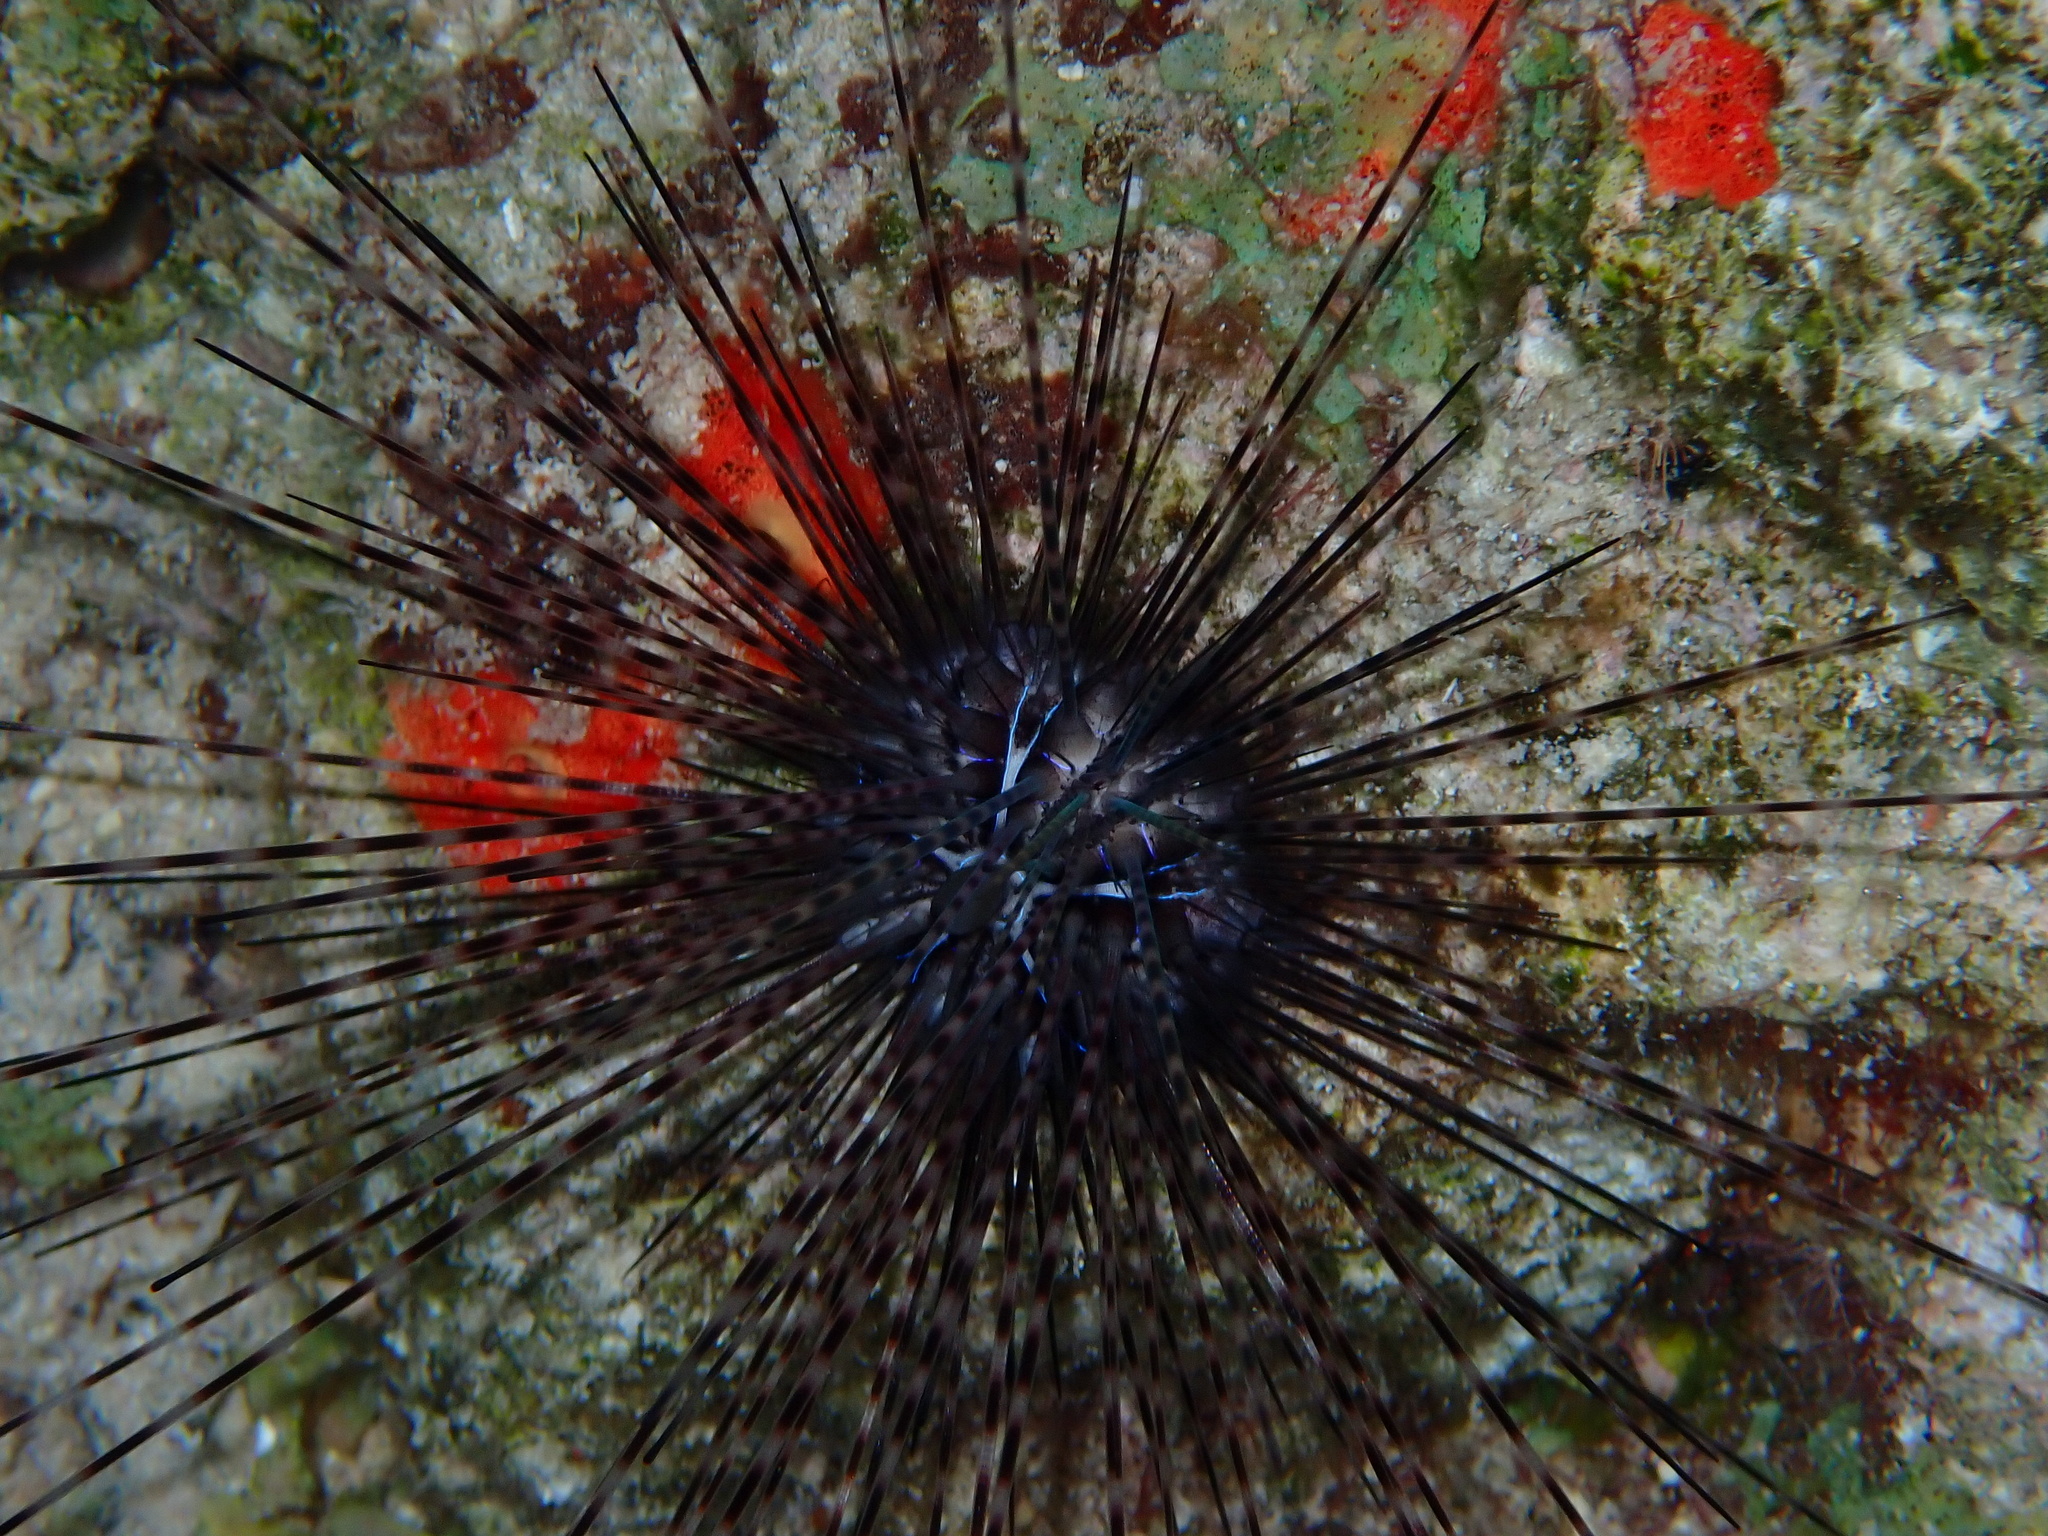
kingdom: Animalia
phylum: Echinodermata
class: Echinoidea
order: Diadematoida
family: Diadematidae
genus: Diadema
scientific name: Diadema antillarum
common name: Spiny urchin
